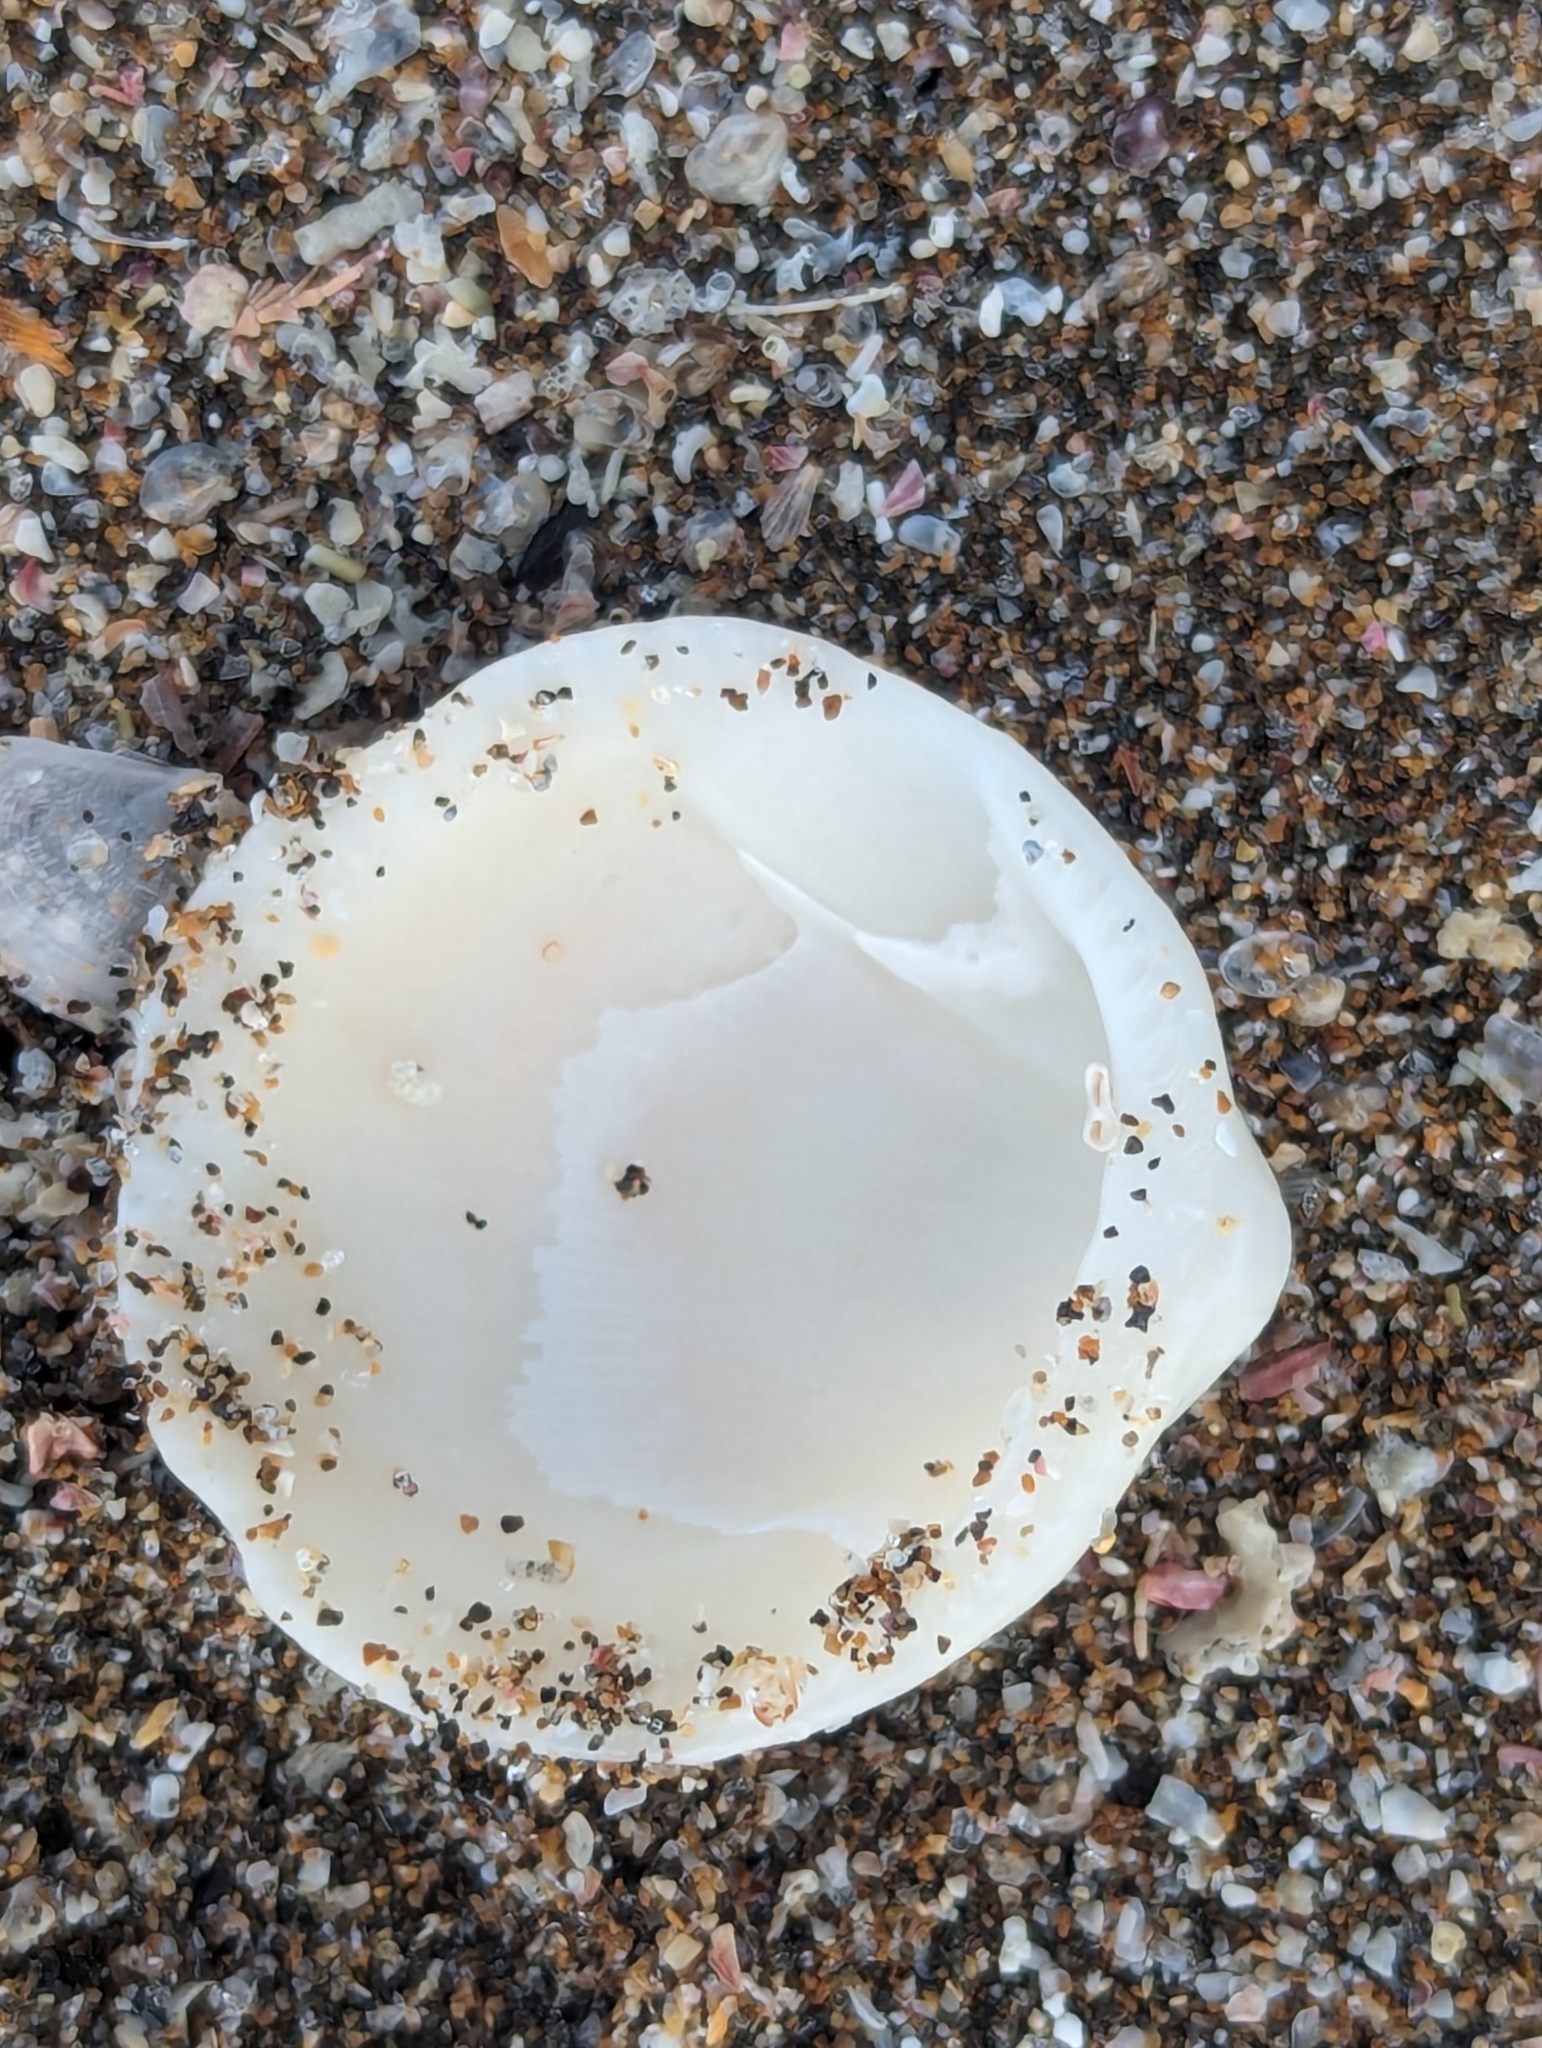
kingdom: Animalia
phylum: Mollusca
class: Bivalvia
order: Arcida
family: Glycymerididae
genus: Tucetona
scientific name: Tucetona laticostata
